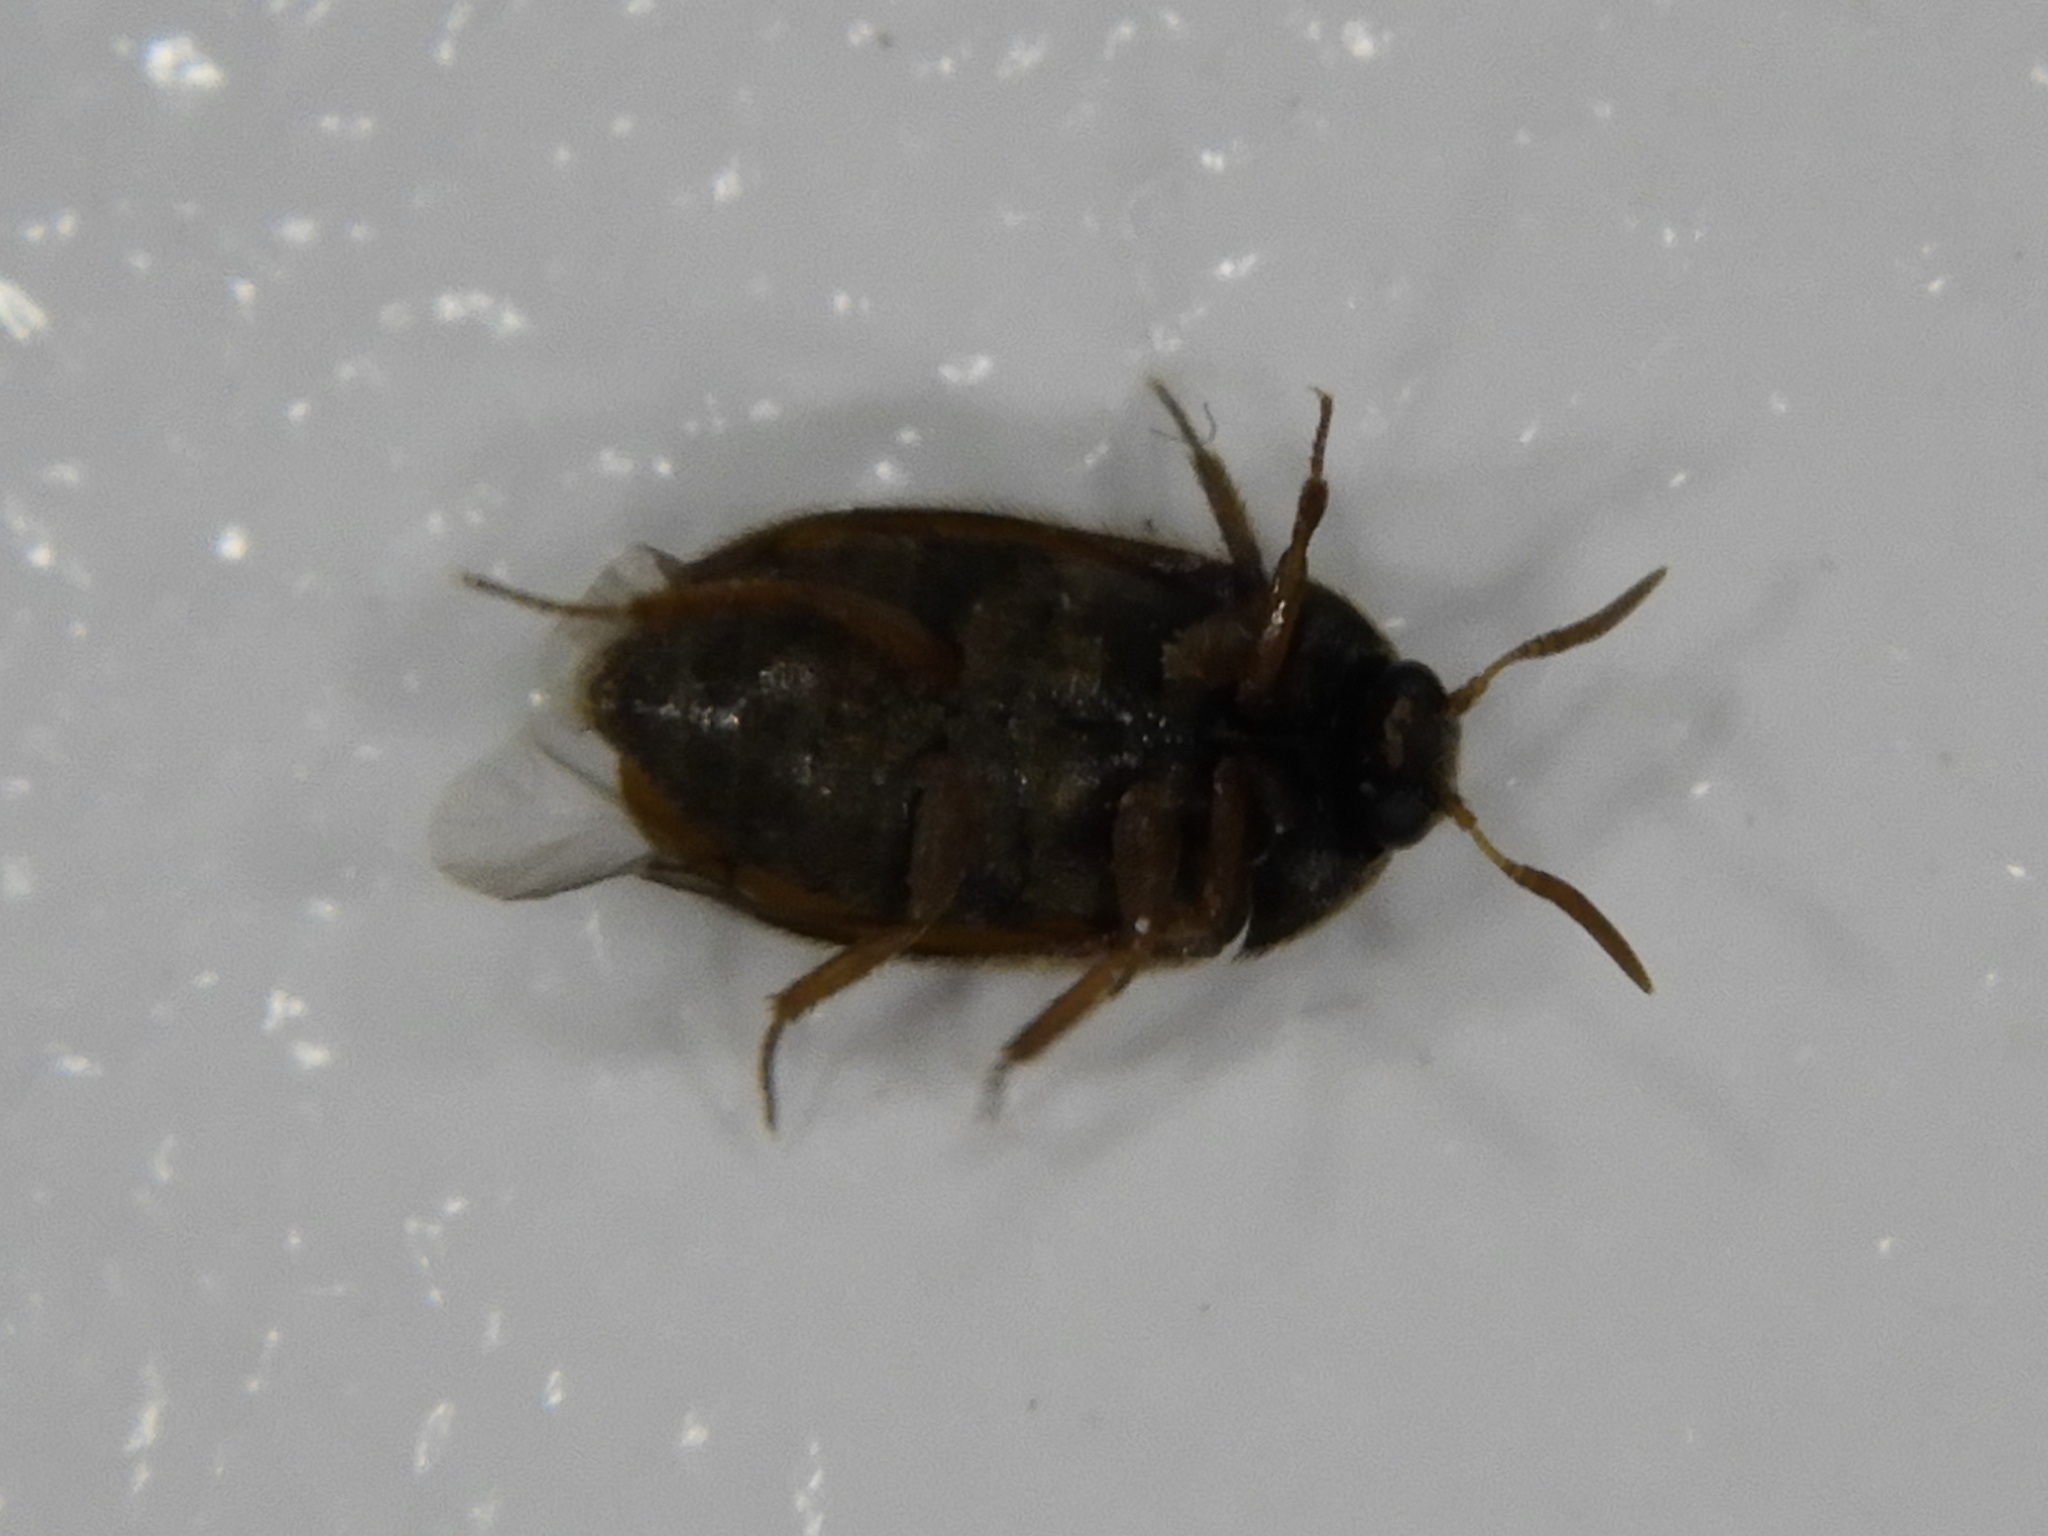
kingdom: Animalia
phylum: Arthropoda
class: Insecta
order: Coleoptera
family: Dermestidae
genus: Attagenus
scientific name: Attagenus smirnovi
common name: Brown carpet beetle
